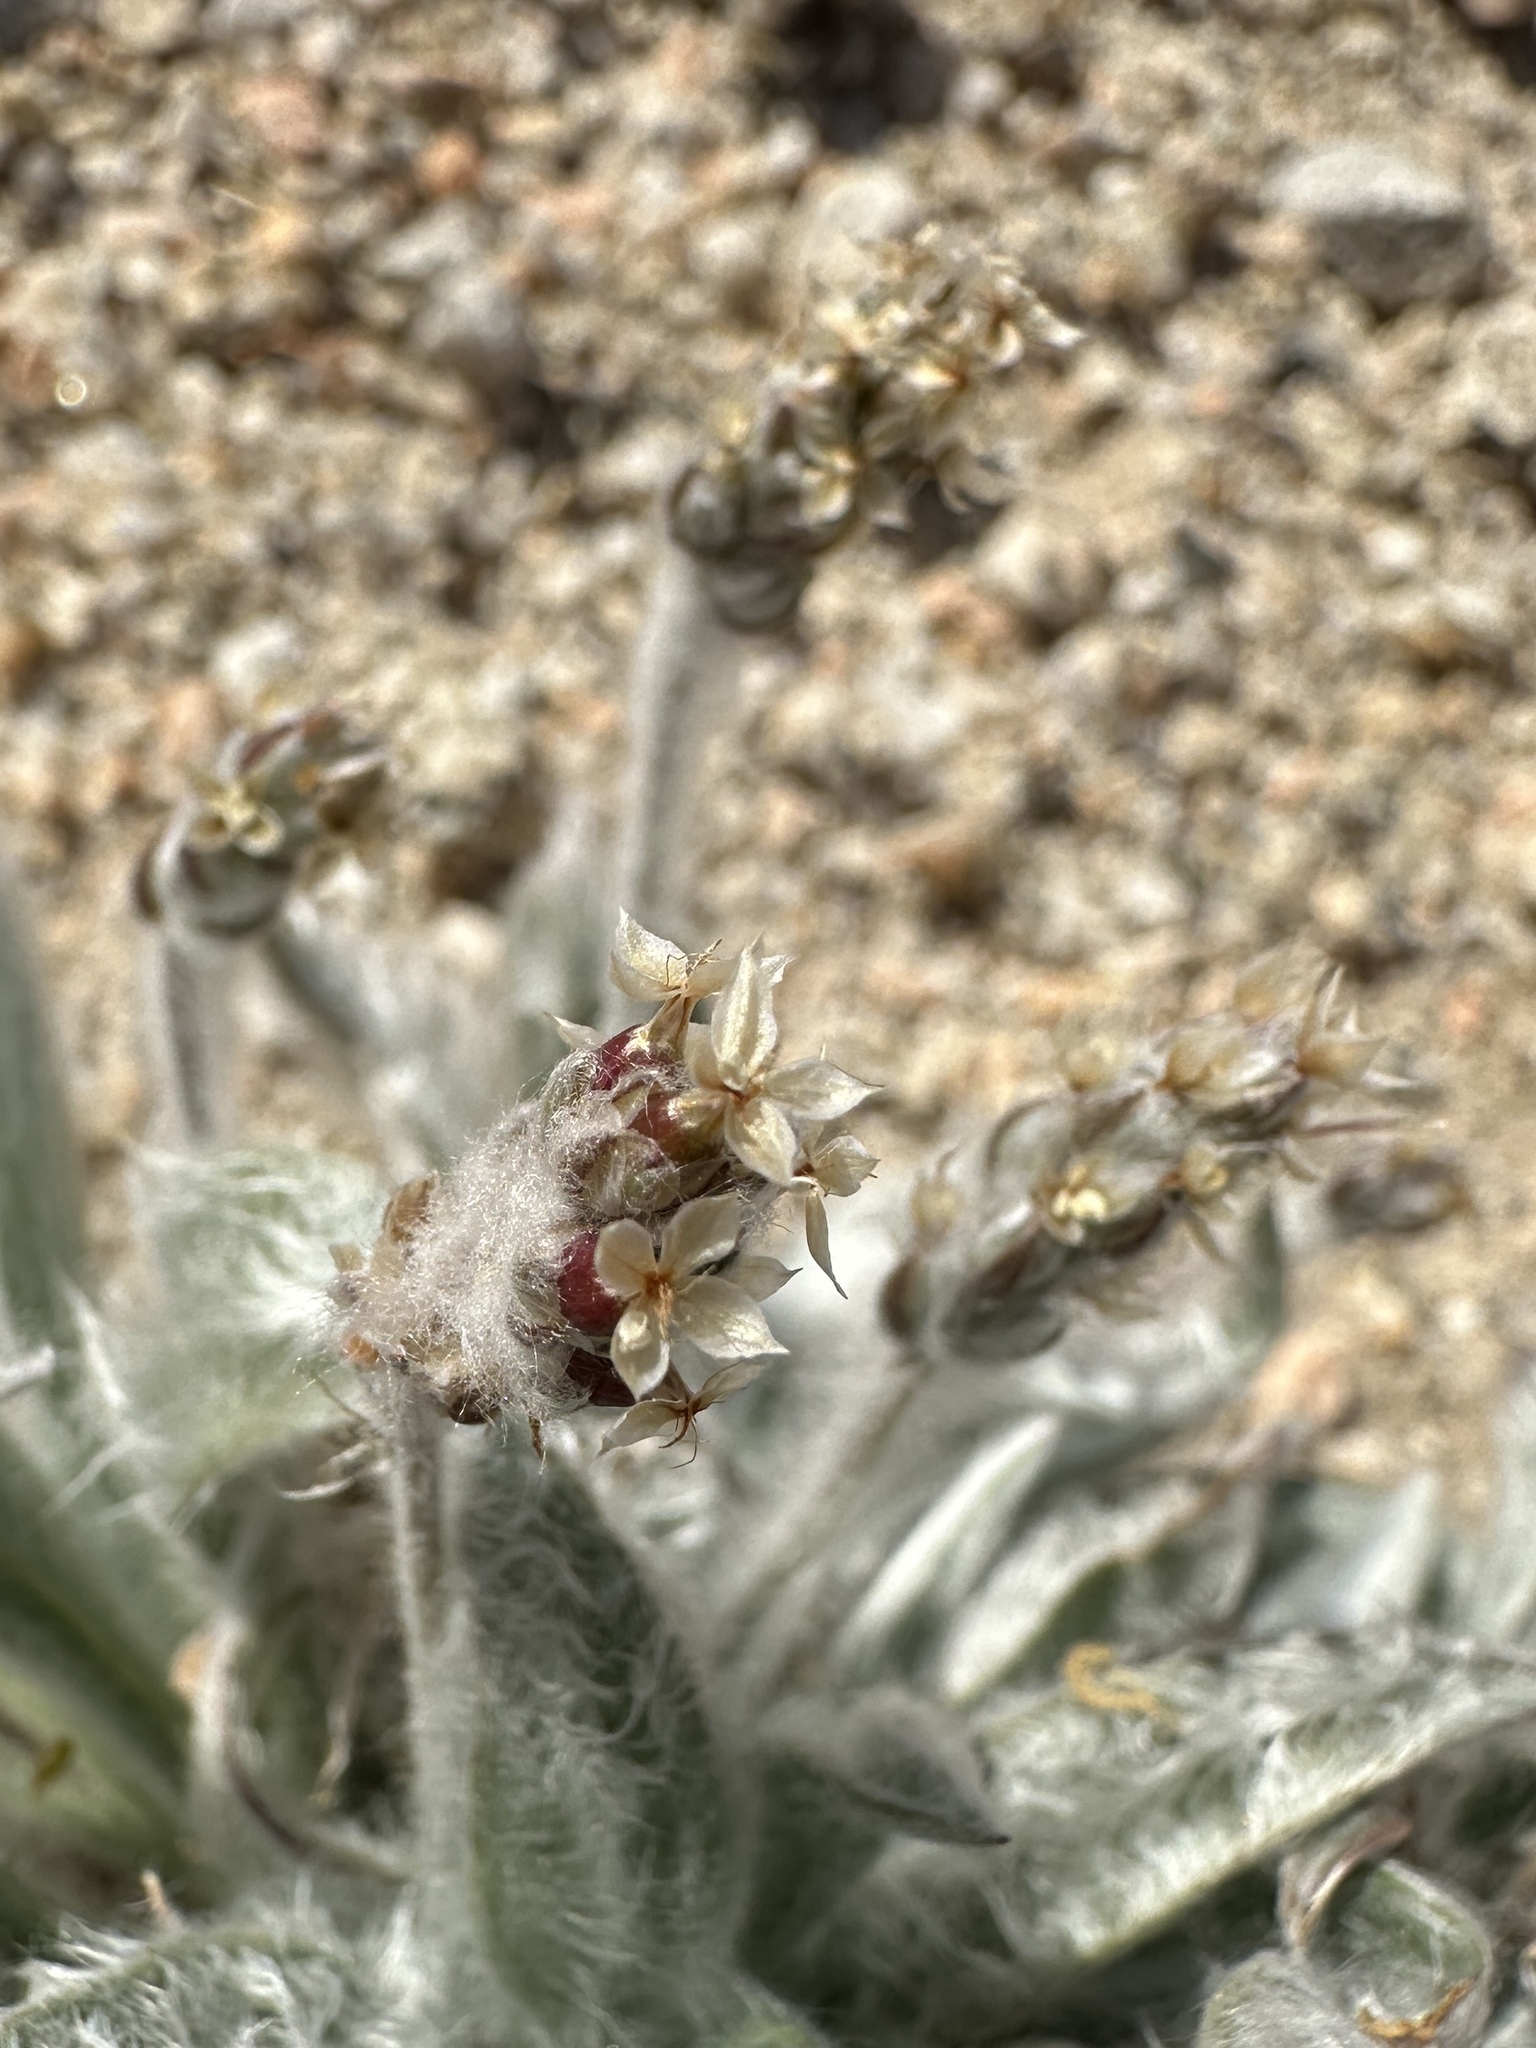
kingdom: Plantae
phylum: Tracheophyta
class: Magnoliopsida
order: Lamiales
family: Plantaginaceae
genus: Plantago
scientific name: Plantago ovata
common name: Blond plantain
